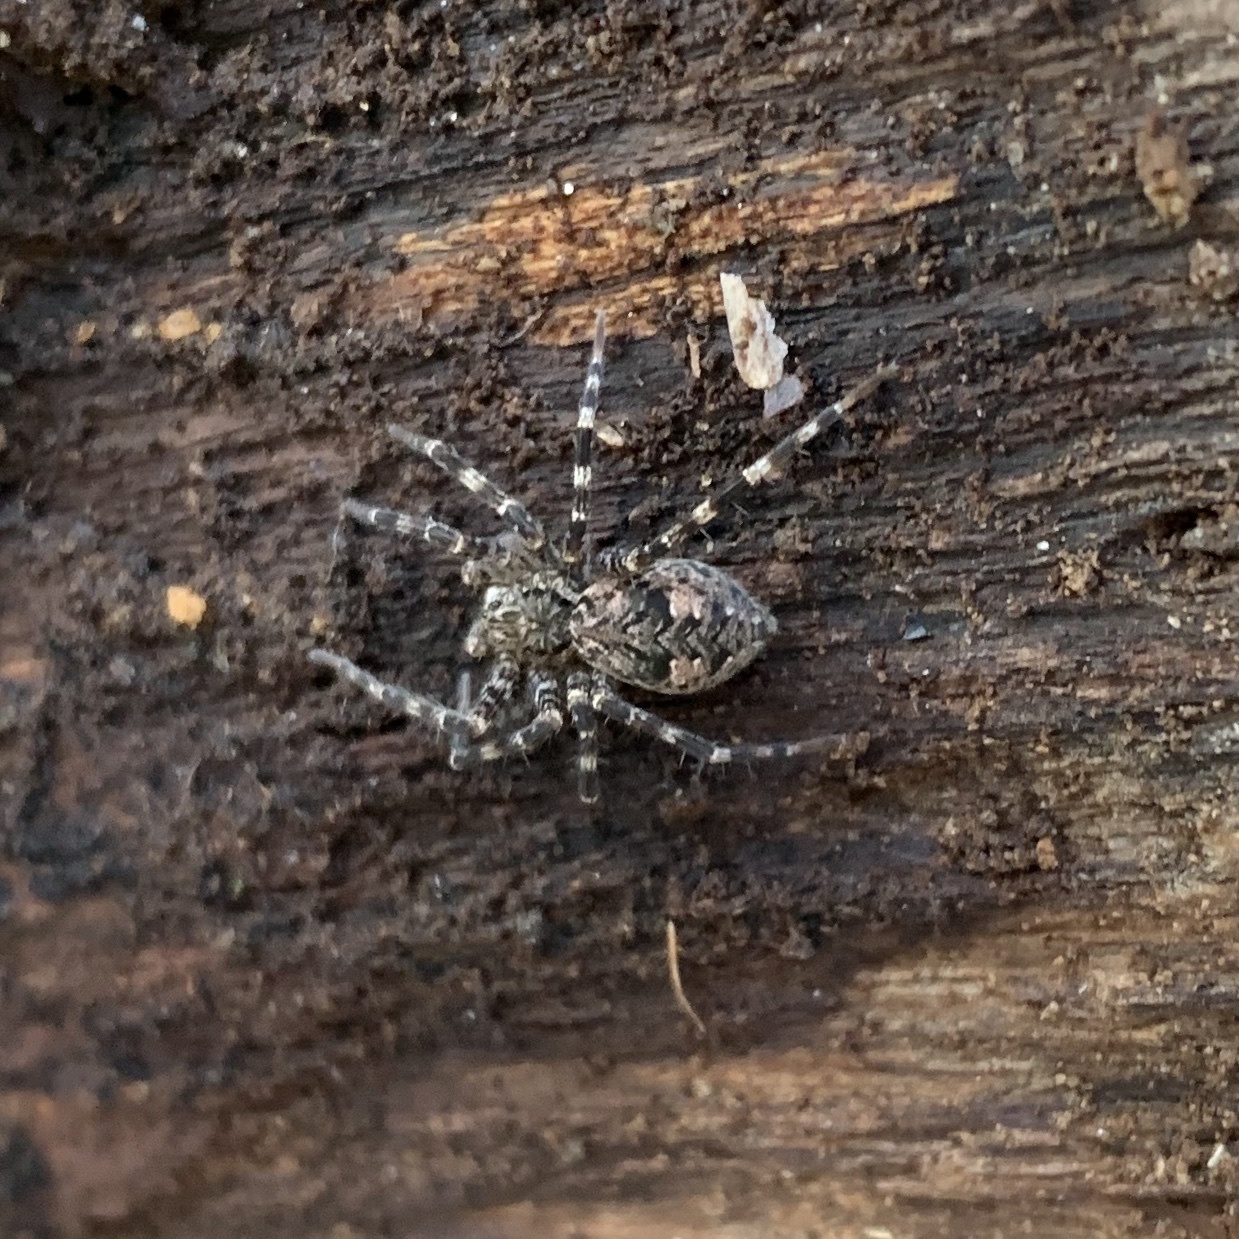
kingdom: Animalia
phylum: Arthropoda
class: Arachnida
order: Araneae
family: Pisauridae
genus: Dolomedes
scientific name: Dolomedes tenebrosus
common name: Dark fishing spider
